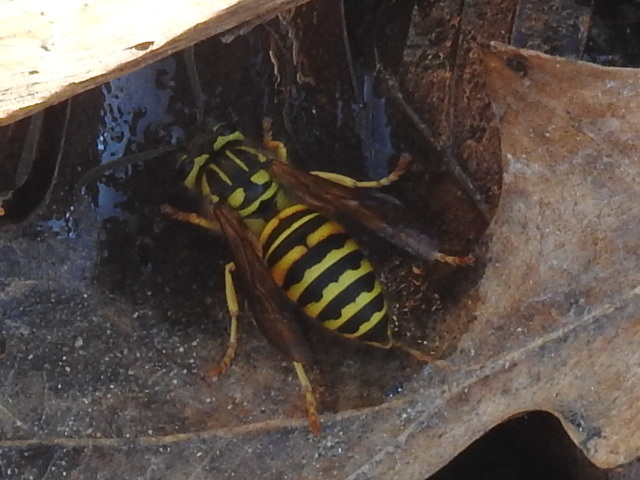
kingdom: Animalia
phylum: Arthropoda
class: Insecta
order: Hymenoptera
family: Vespidae
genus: Vespula
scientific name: Vespula squamosa
